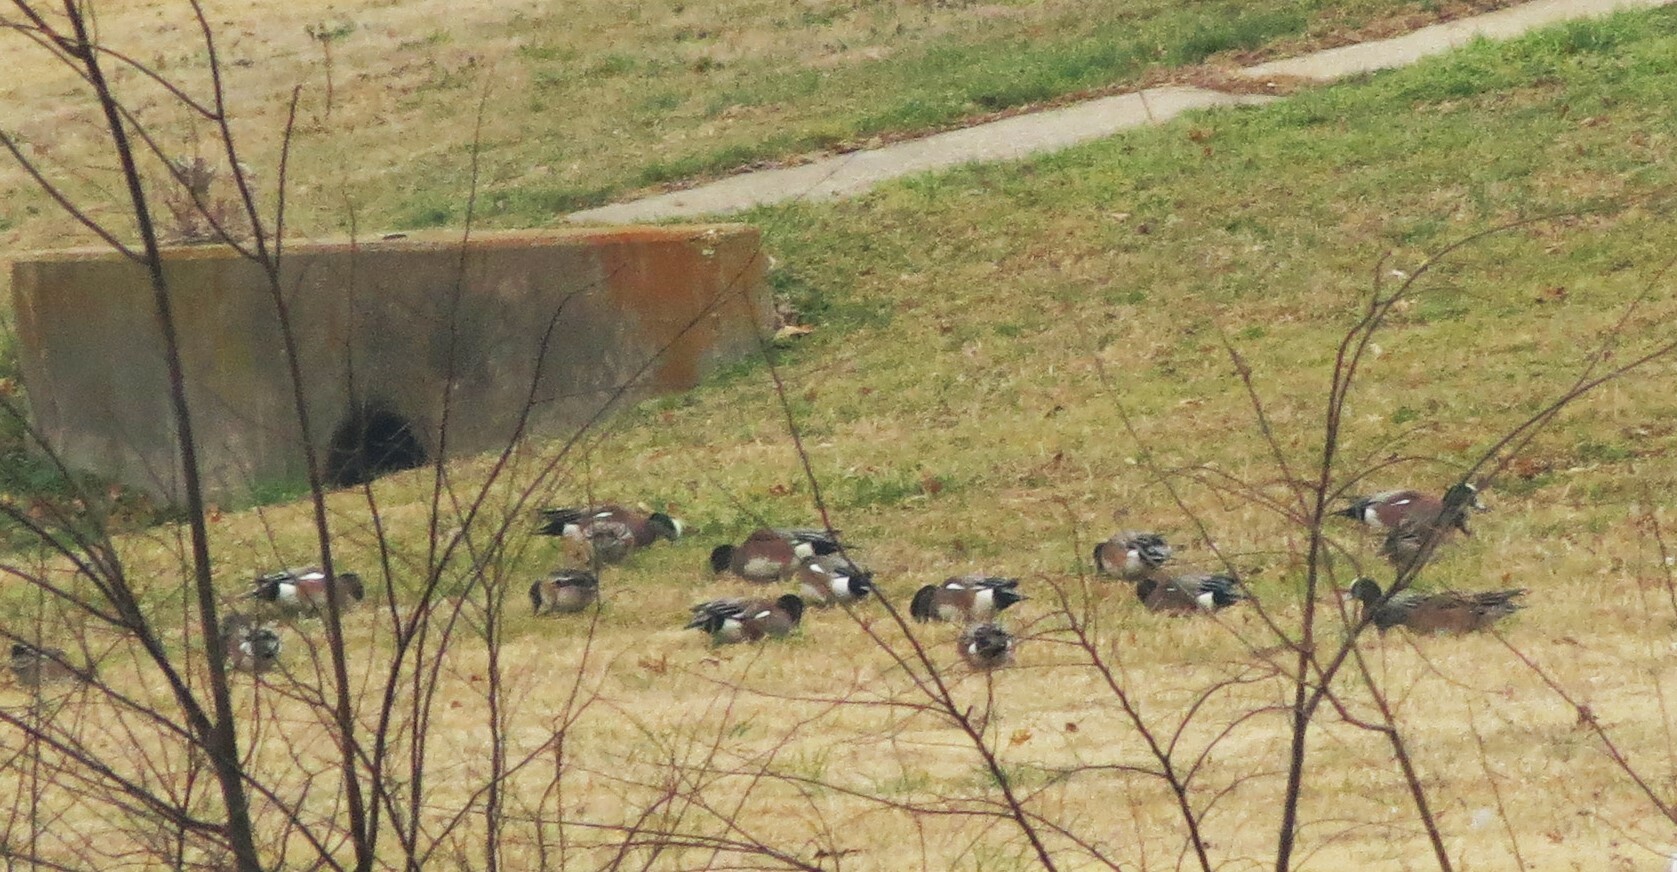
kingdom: Animalia
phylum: Chordata
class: Aves
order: Anseriformes
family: Anatidae
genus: Mareca
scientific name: Mareca americana
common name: American wigeon
